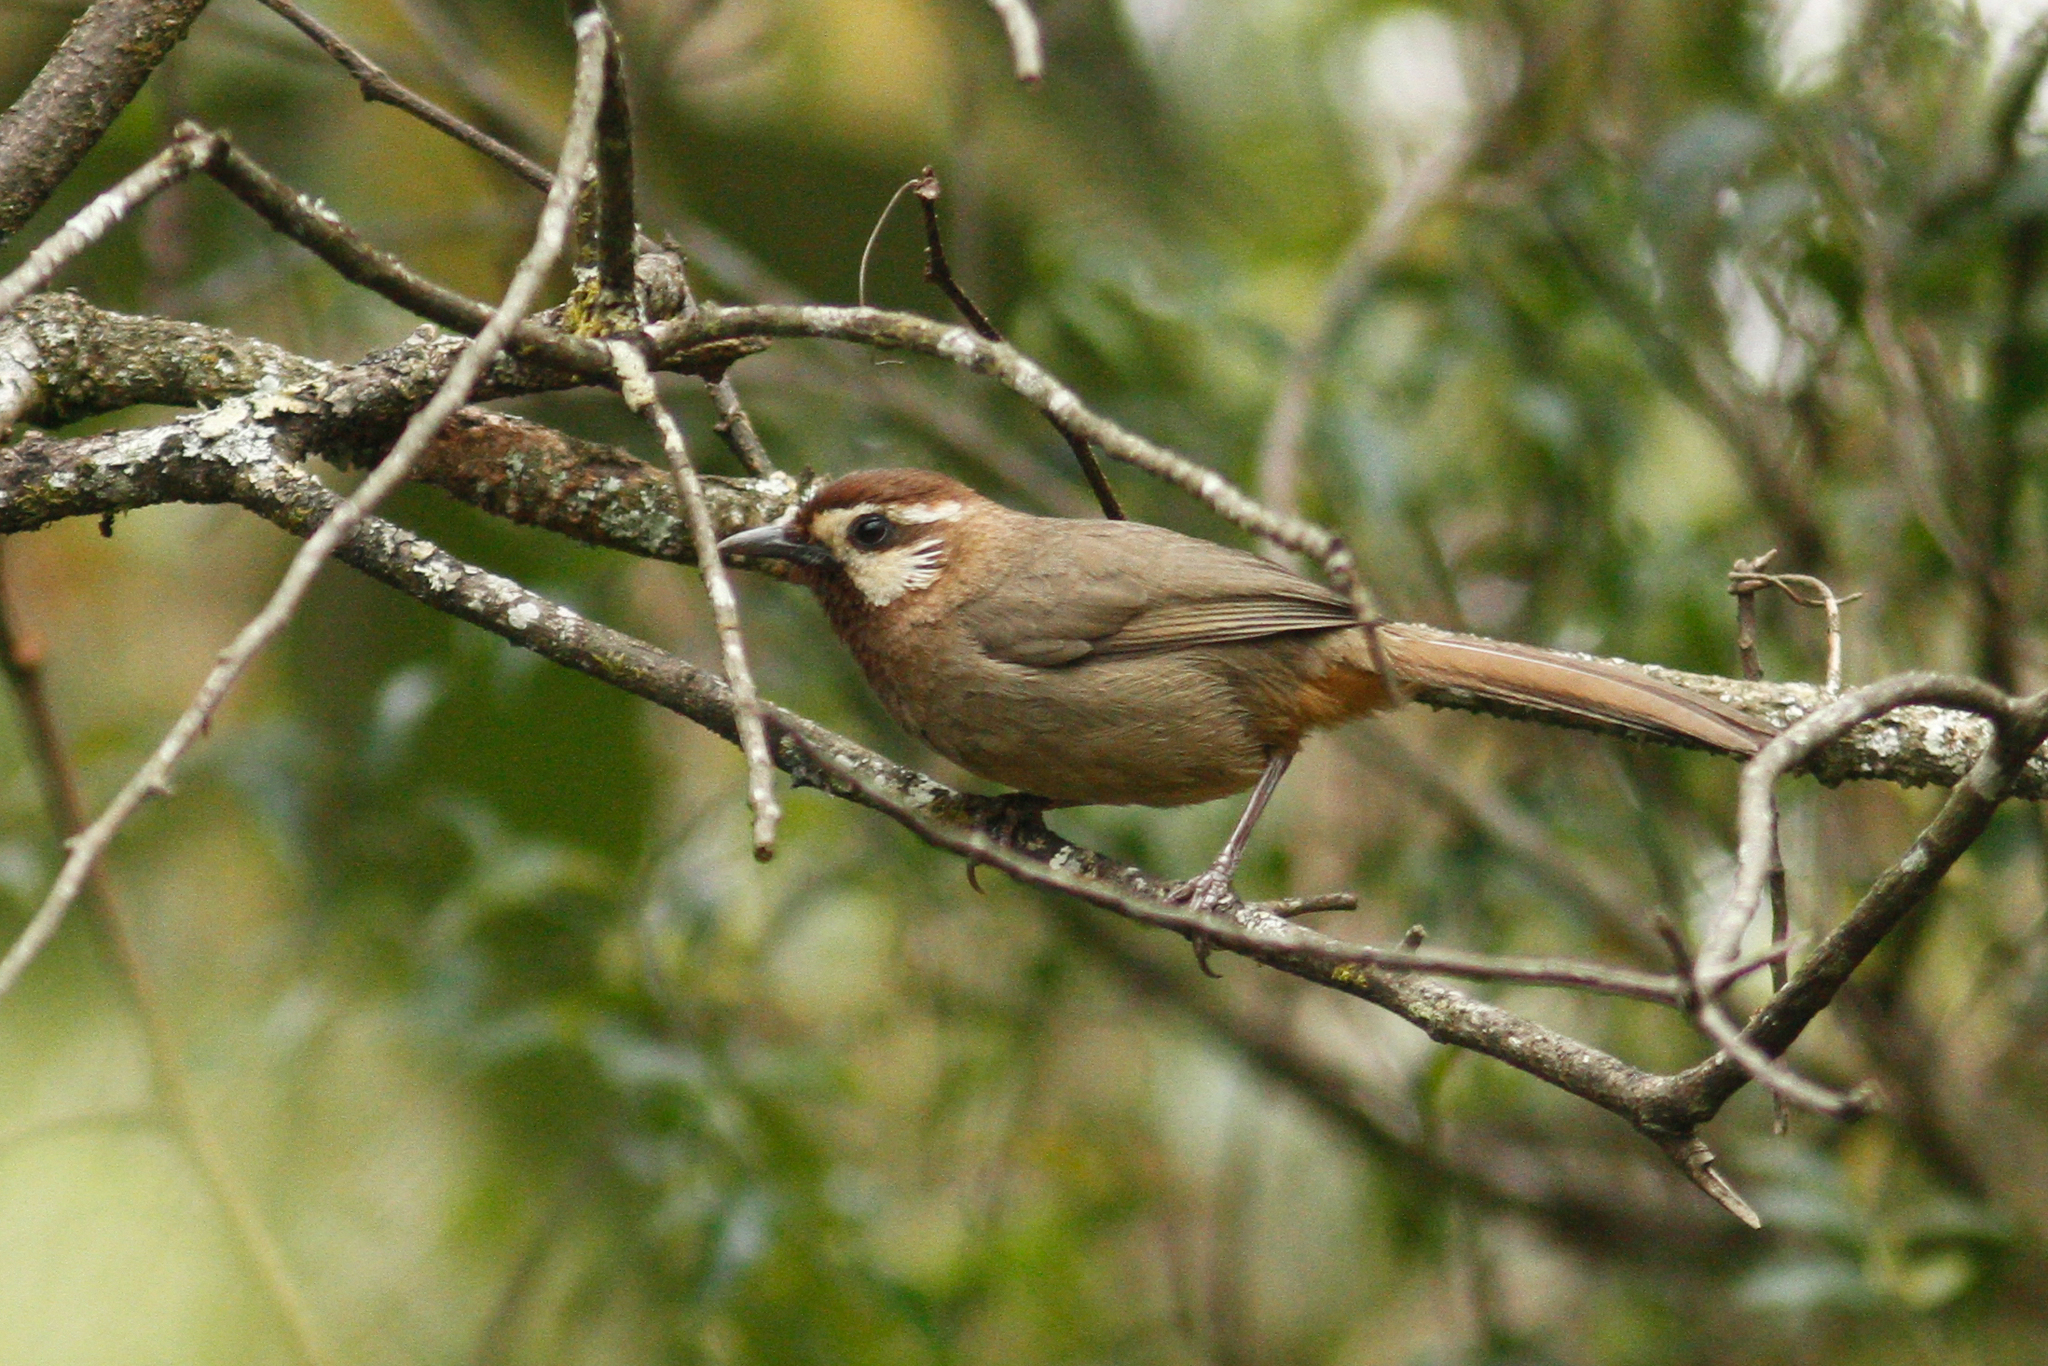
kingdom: Animalia
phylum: Chordata
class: Aves
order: Passeriformes
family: Leiothrichidae
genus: Pterorhinus
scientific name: Pterorhinus sannio
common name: White-browed laughingthrush
